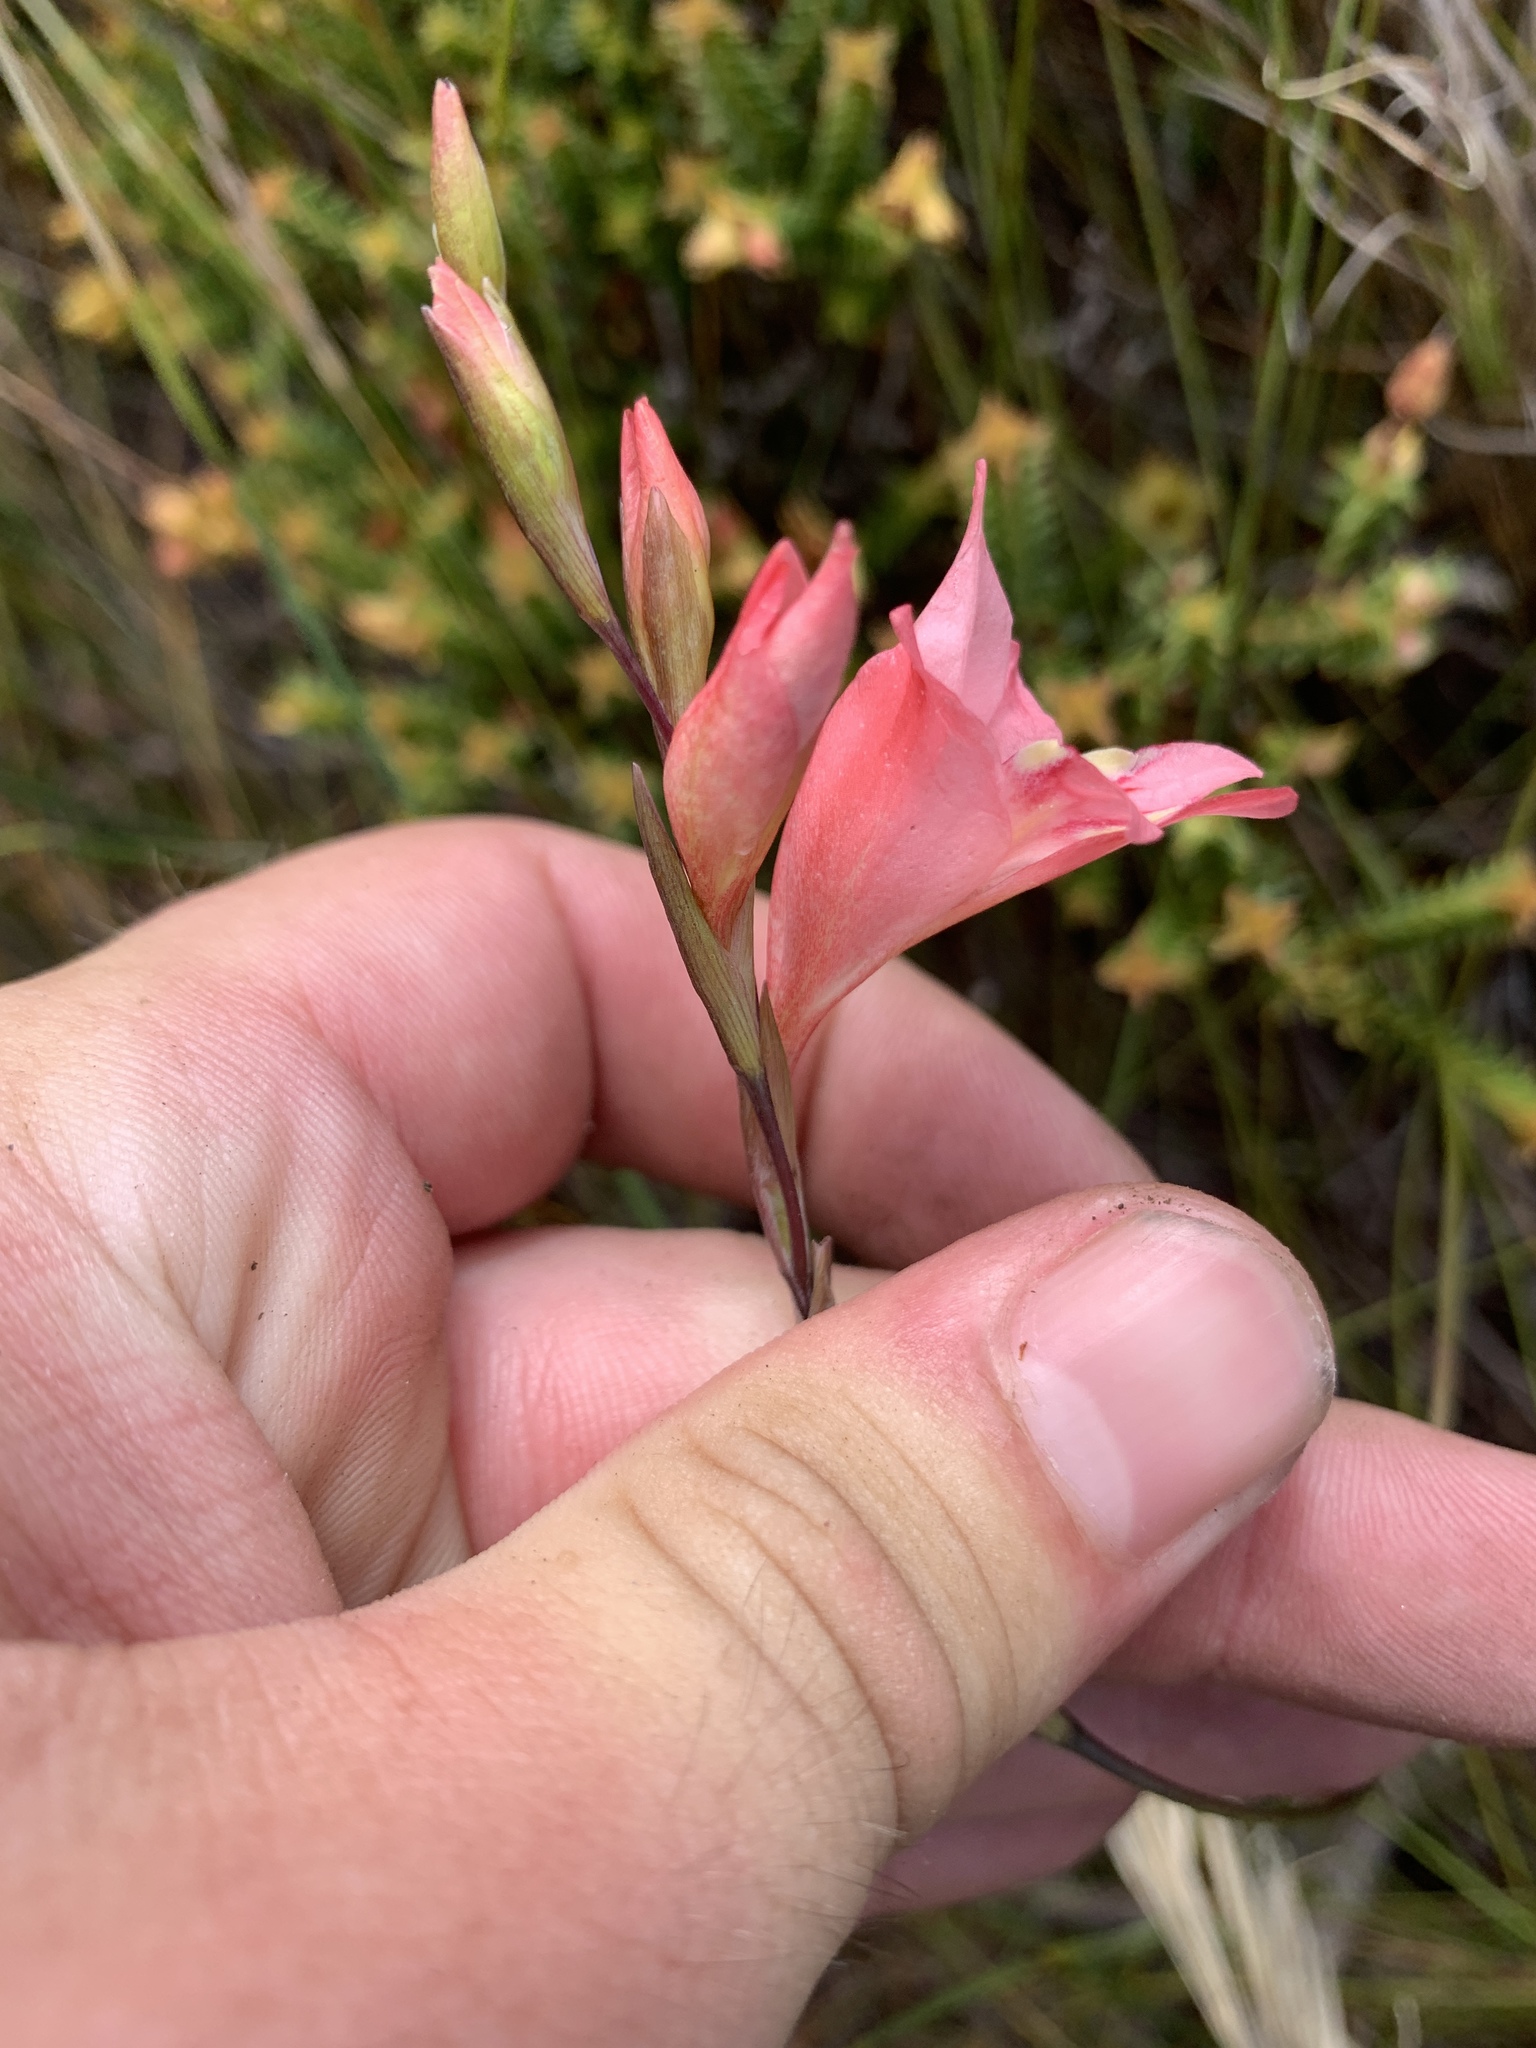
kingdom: Plantae
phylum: Tracheophyta
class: Liliopsida
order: Asparagales
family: Iridaceae
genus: Gladiolus
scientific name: Gladiolus brevifolius
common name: March pypie
